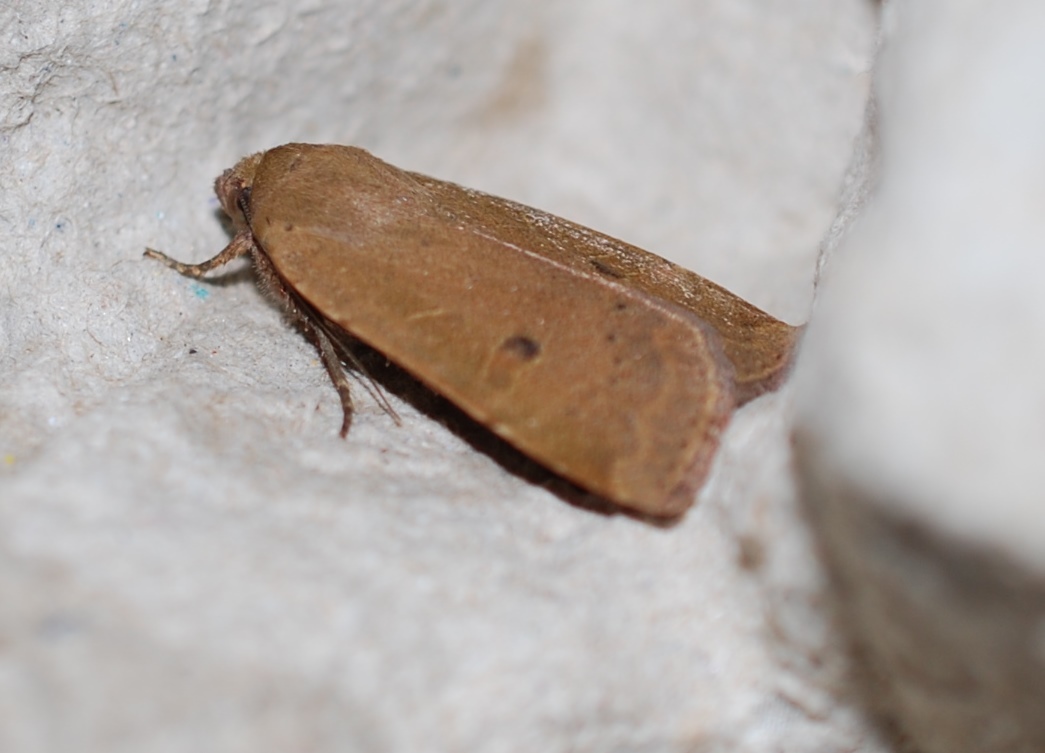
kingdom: Animalia
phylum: Arthropoda
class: Insecta
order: Lepidoptera
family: Noctuidae
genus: Noctua
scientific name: Noctua comes
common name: Lesser yellow underwing
